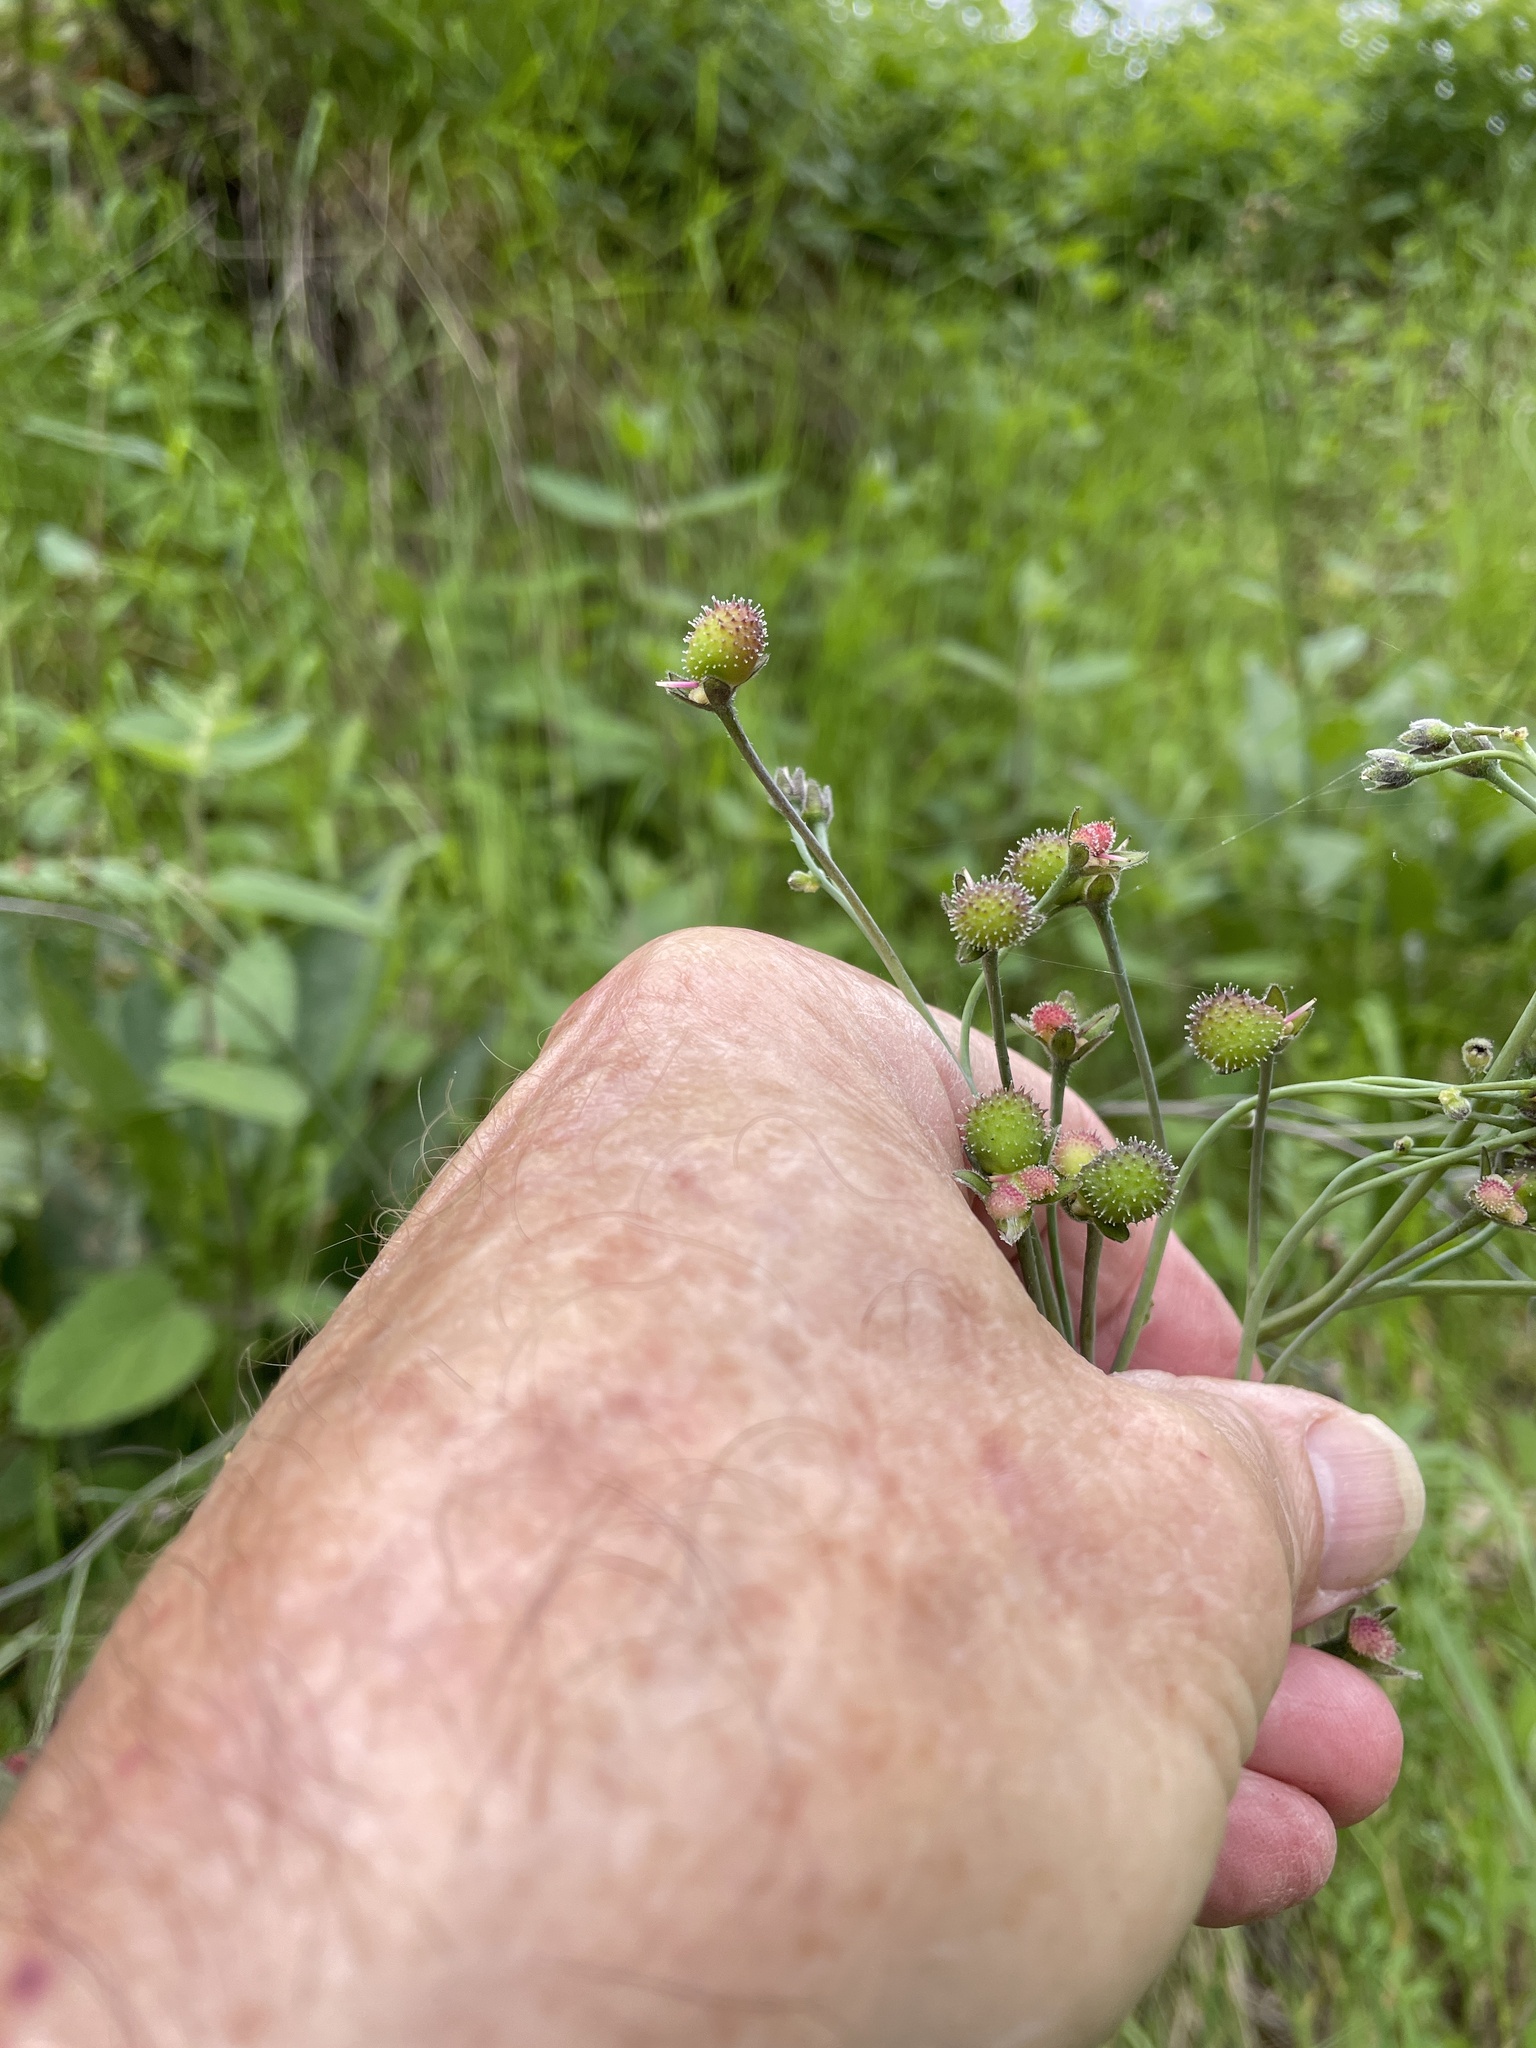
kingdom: Plantae
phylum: Tracheophyta
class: Magnoliopsida
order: Boraginales
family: Boraginaceae
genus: Adelinia
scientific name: Adelinia grande
